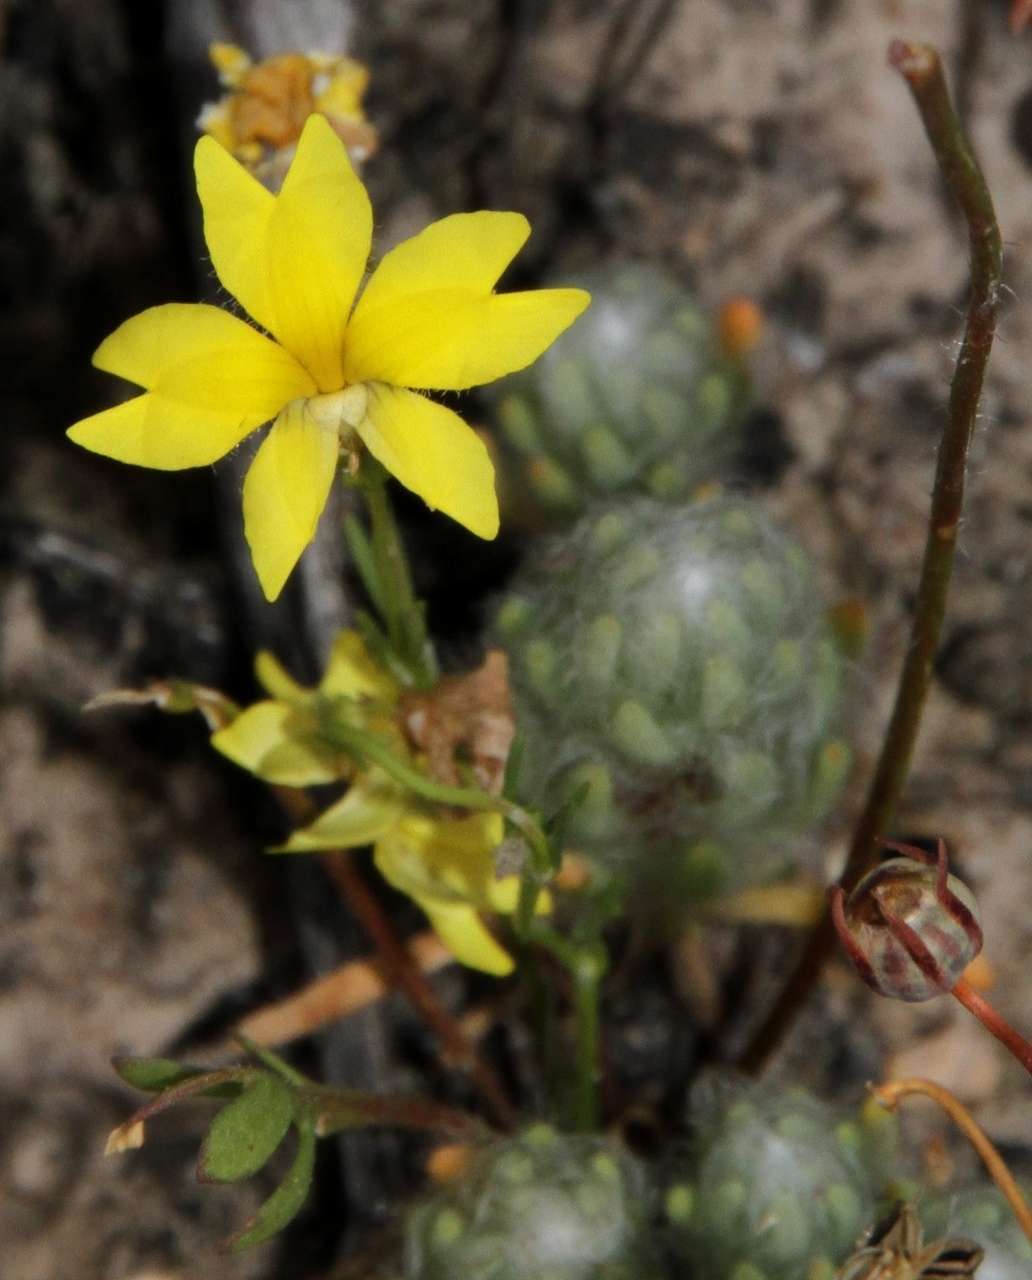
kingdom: Plantae
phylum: Tracheophyta
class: Magnoliopsida
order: Asterales
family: Goodeniaceae
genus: Goodenia
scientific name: Goodenia pinnatifida
